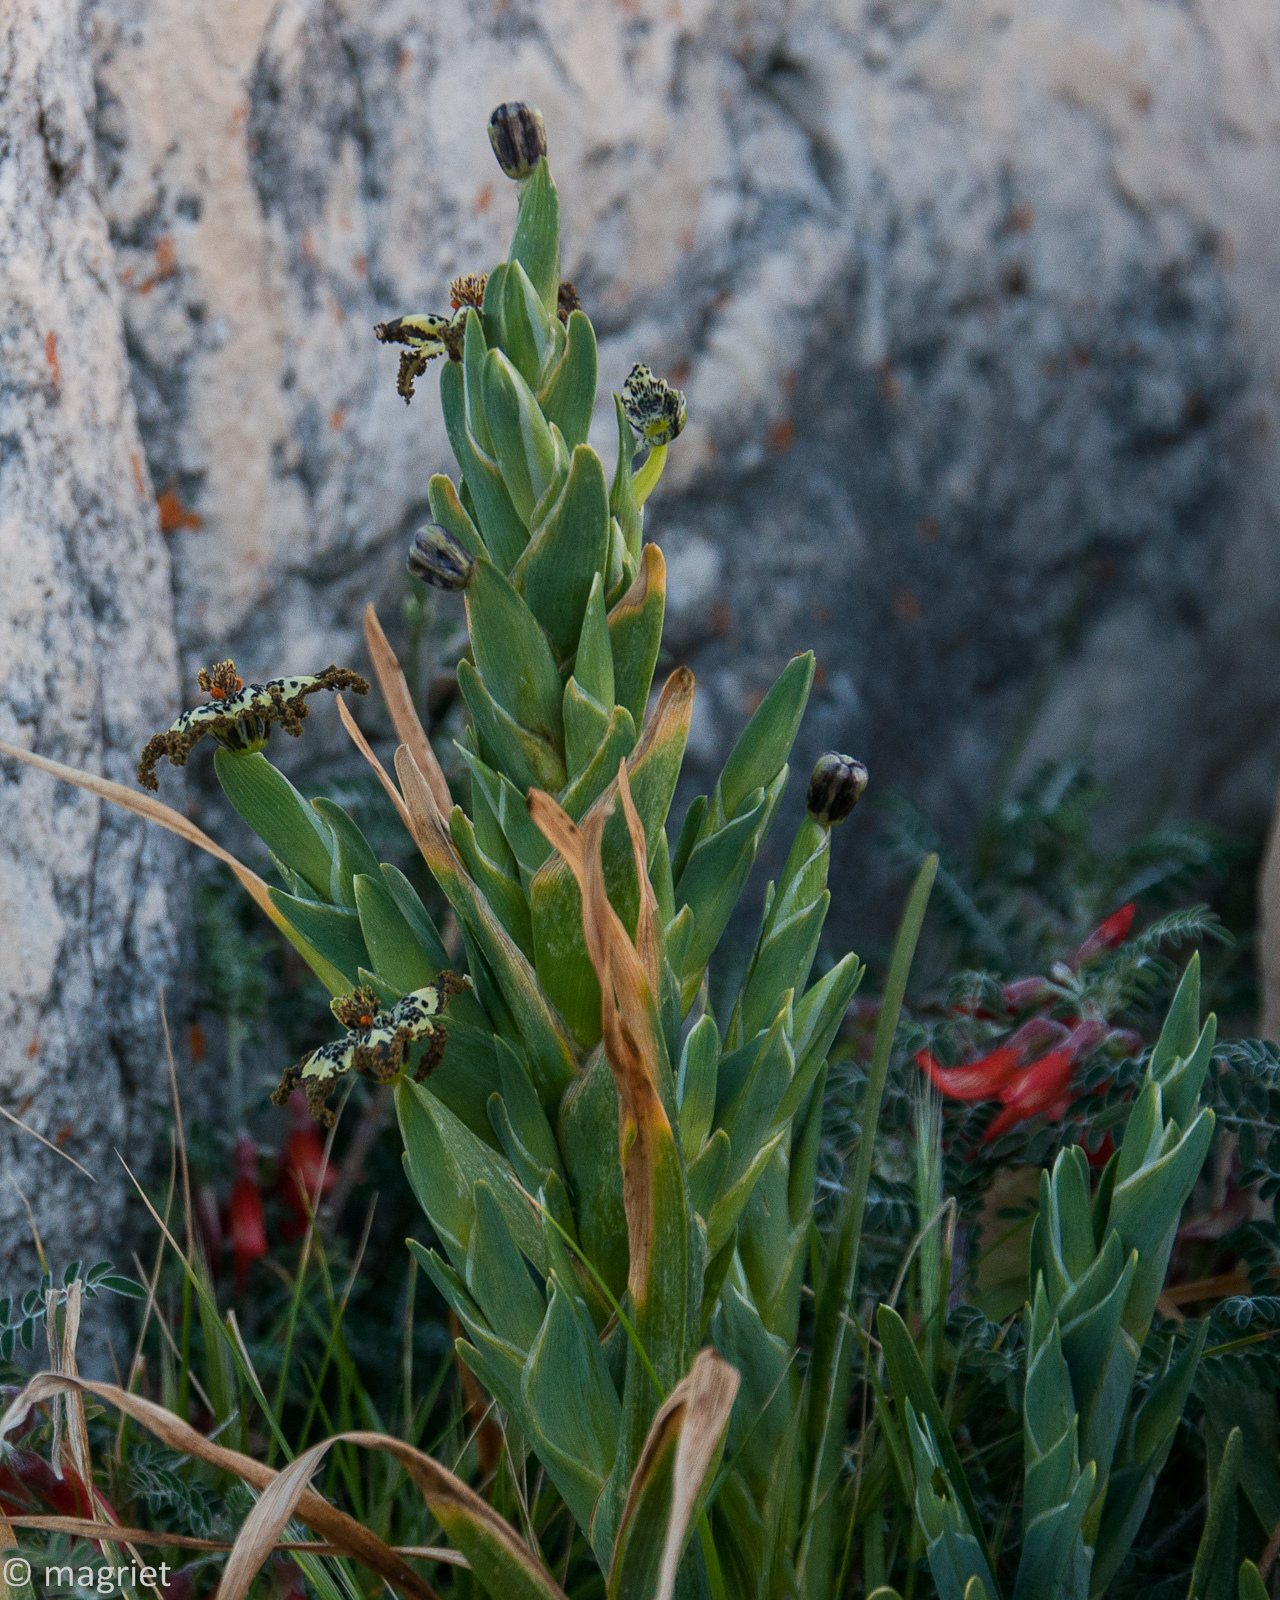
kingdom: Plantae
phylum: Tracheophyta
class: Liliopsida
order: Asparagales
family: Iridaceae
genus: Ferraria
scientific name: Ferraria crispa
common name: Black-flag
